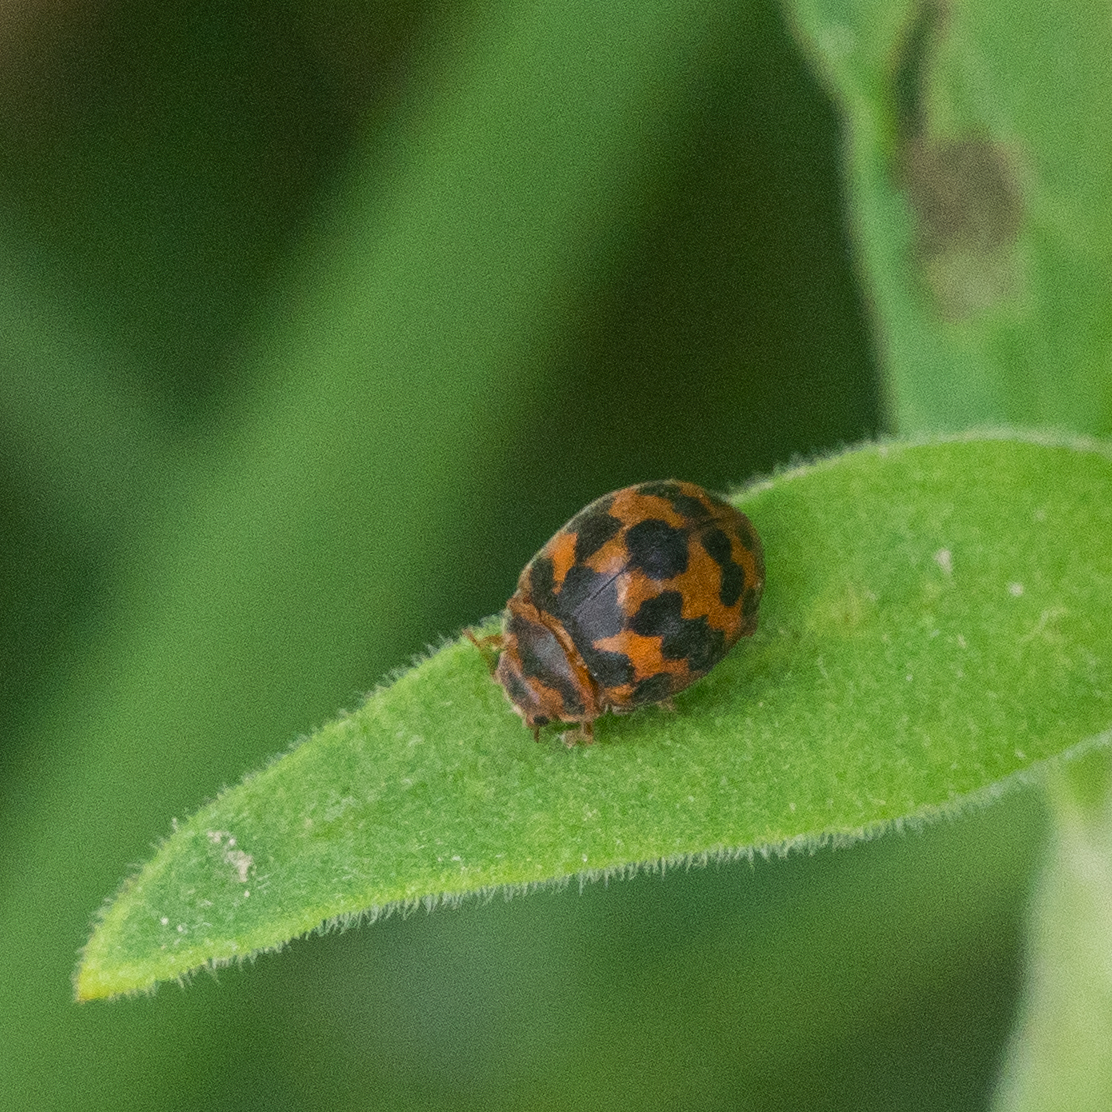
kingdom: Animalia
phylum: Arthropoda
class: Insecta
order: Coleoptera
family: Coccinellidae
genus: Subcoccinella
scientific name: Subcoccinella vigintiquatuorpunctata
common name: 24-spot ladybird
